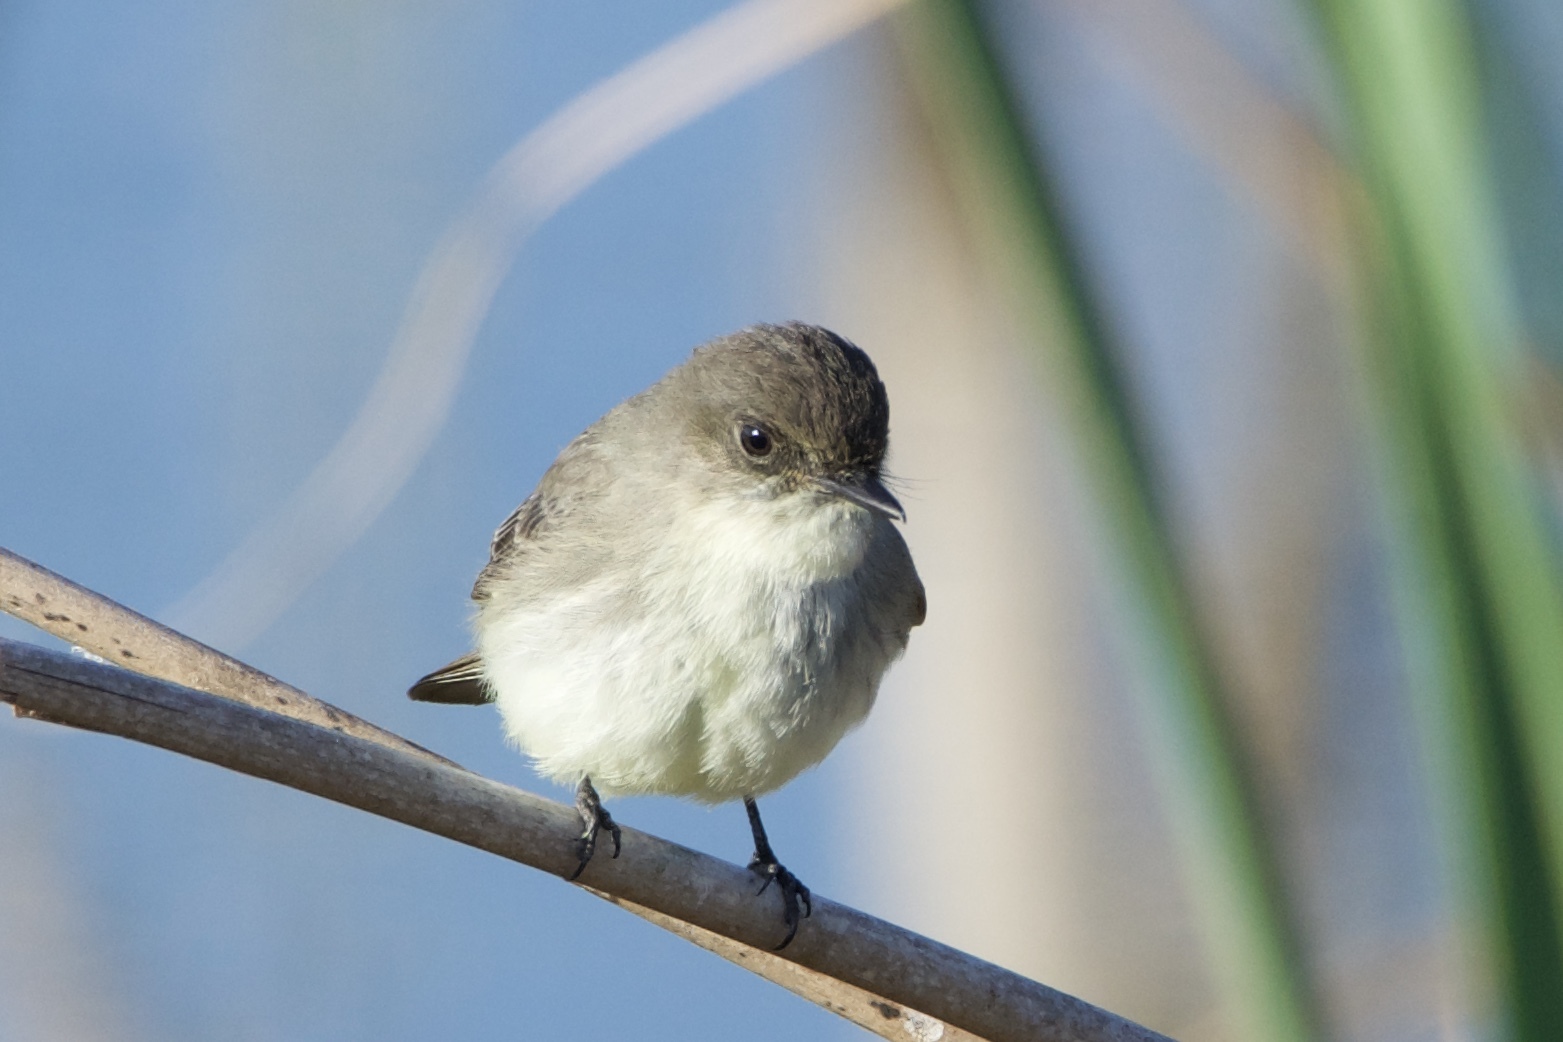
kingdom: Animalia
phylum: Chordata
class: Aves
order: Passeriformes
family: Tyrannidae
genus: Sayornis
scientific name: Sayornis phoebe
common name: Eastern phoebe
